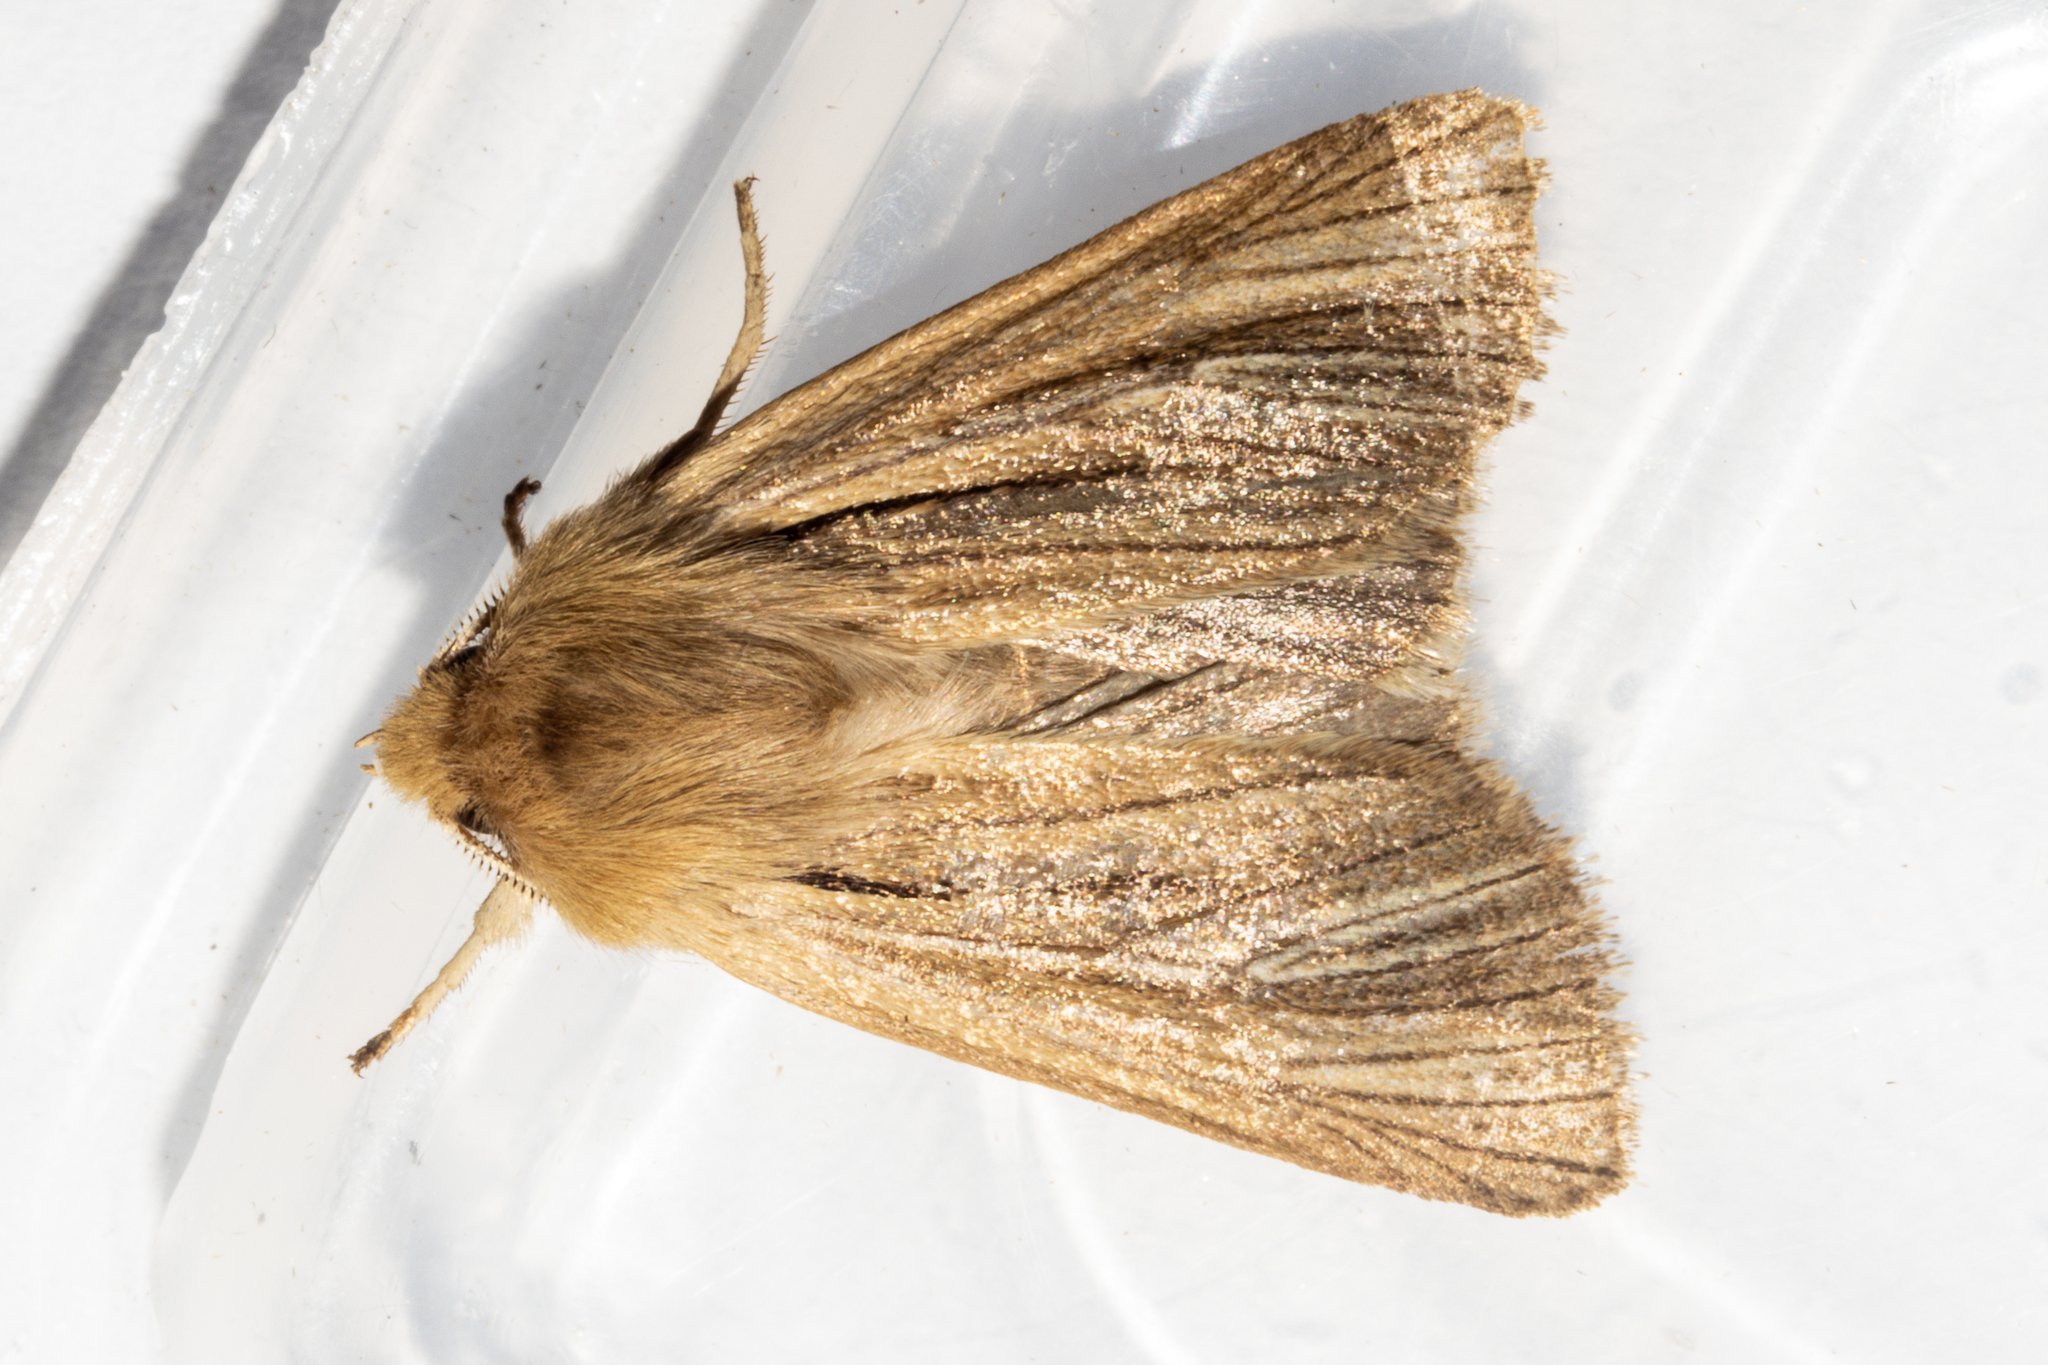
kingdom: Animalia
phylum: Arthropoda
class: Insecta
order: Lepidoptera
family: Noctuidae
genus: Ichneutica
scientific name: Ichneutica
